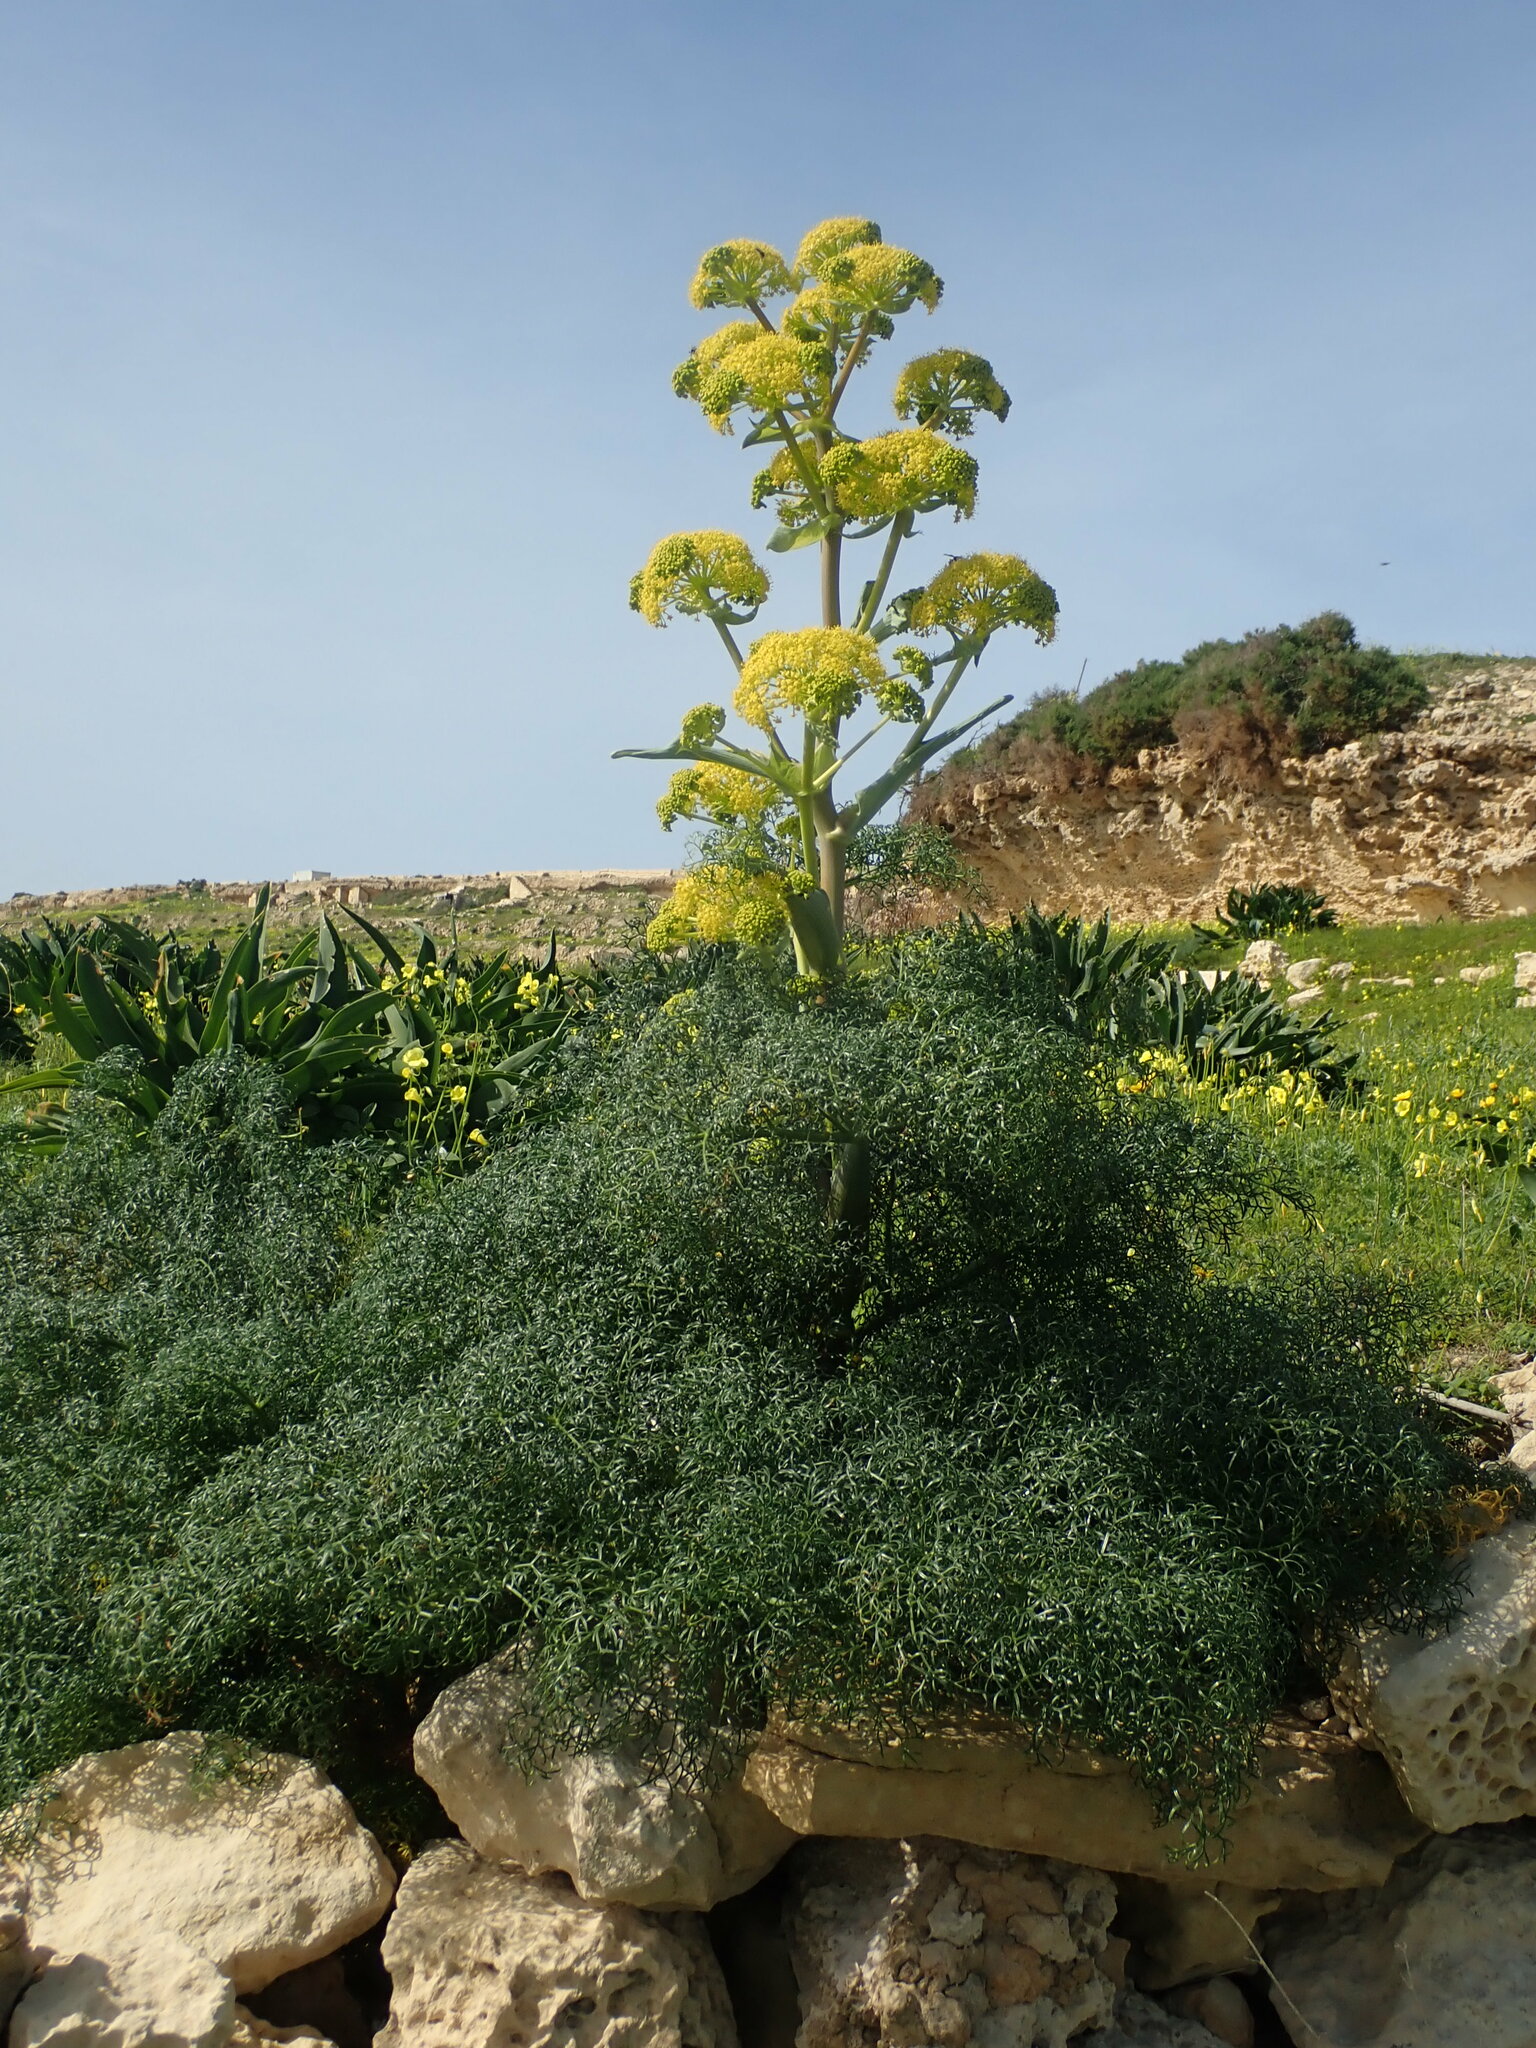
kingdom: Plantae
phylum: Tracheophyta
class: Magnoliopsida
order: Apiales
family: Apiaceae
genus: Ferula
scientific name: Ferula melitensis
